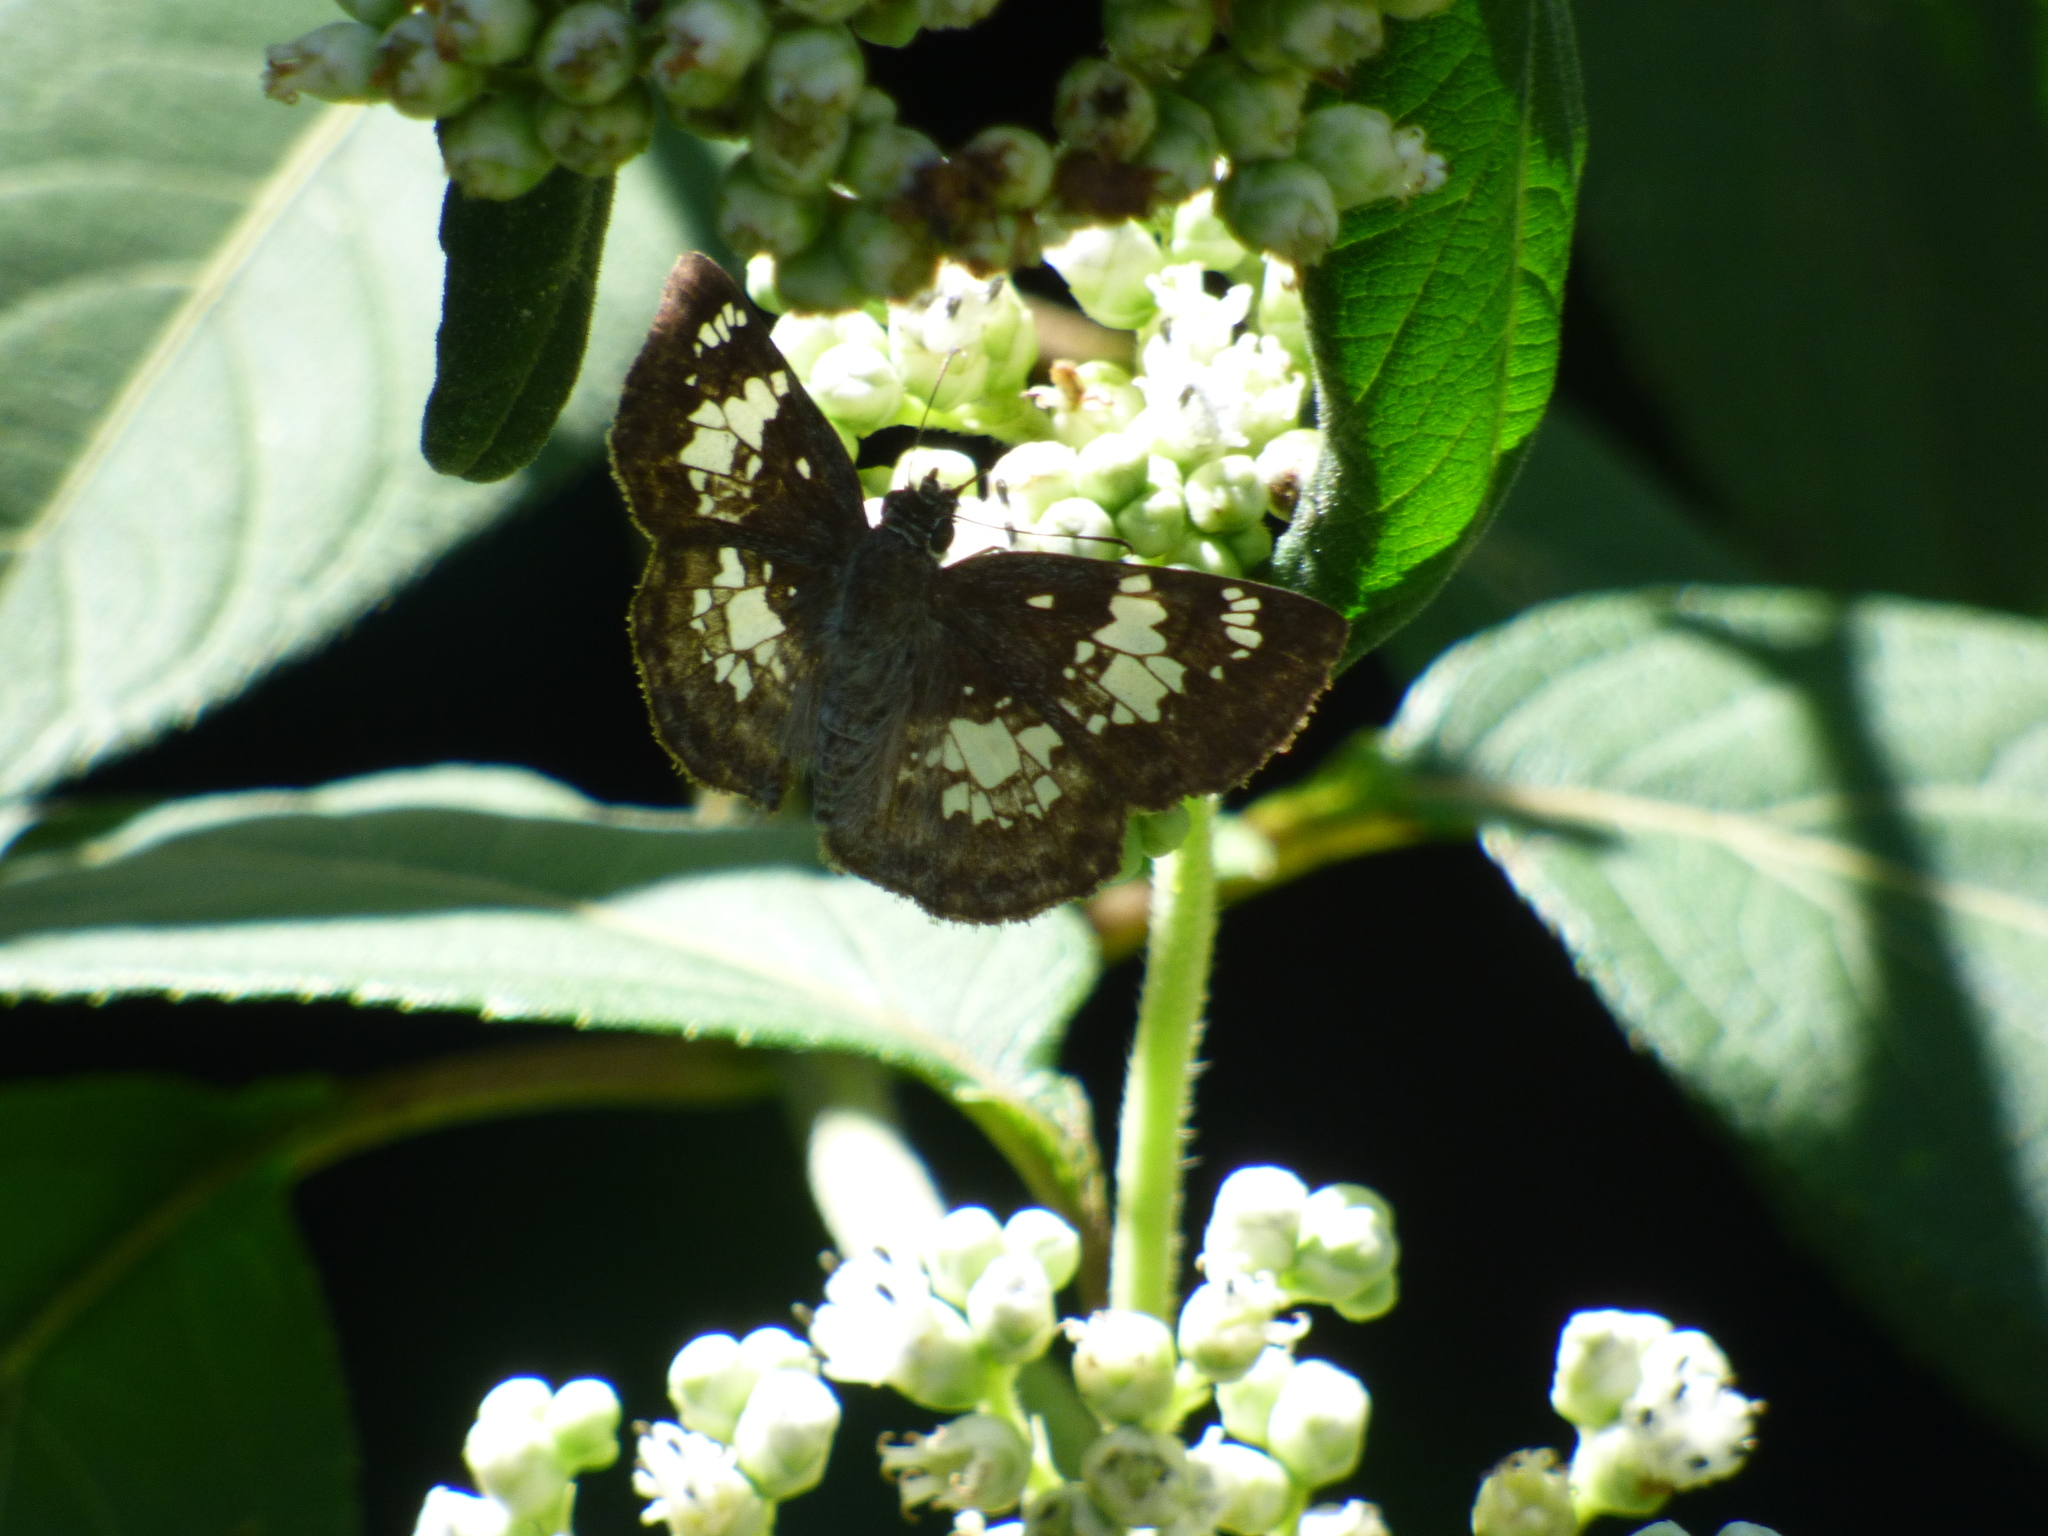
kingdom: Animalia
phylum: Arthropoda
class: Insecta
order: Lepidoptera
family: Hesperiidae
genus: Xenophanes
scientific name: Xenophanes tryxus
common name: Glassy-winged skipper
